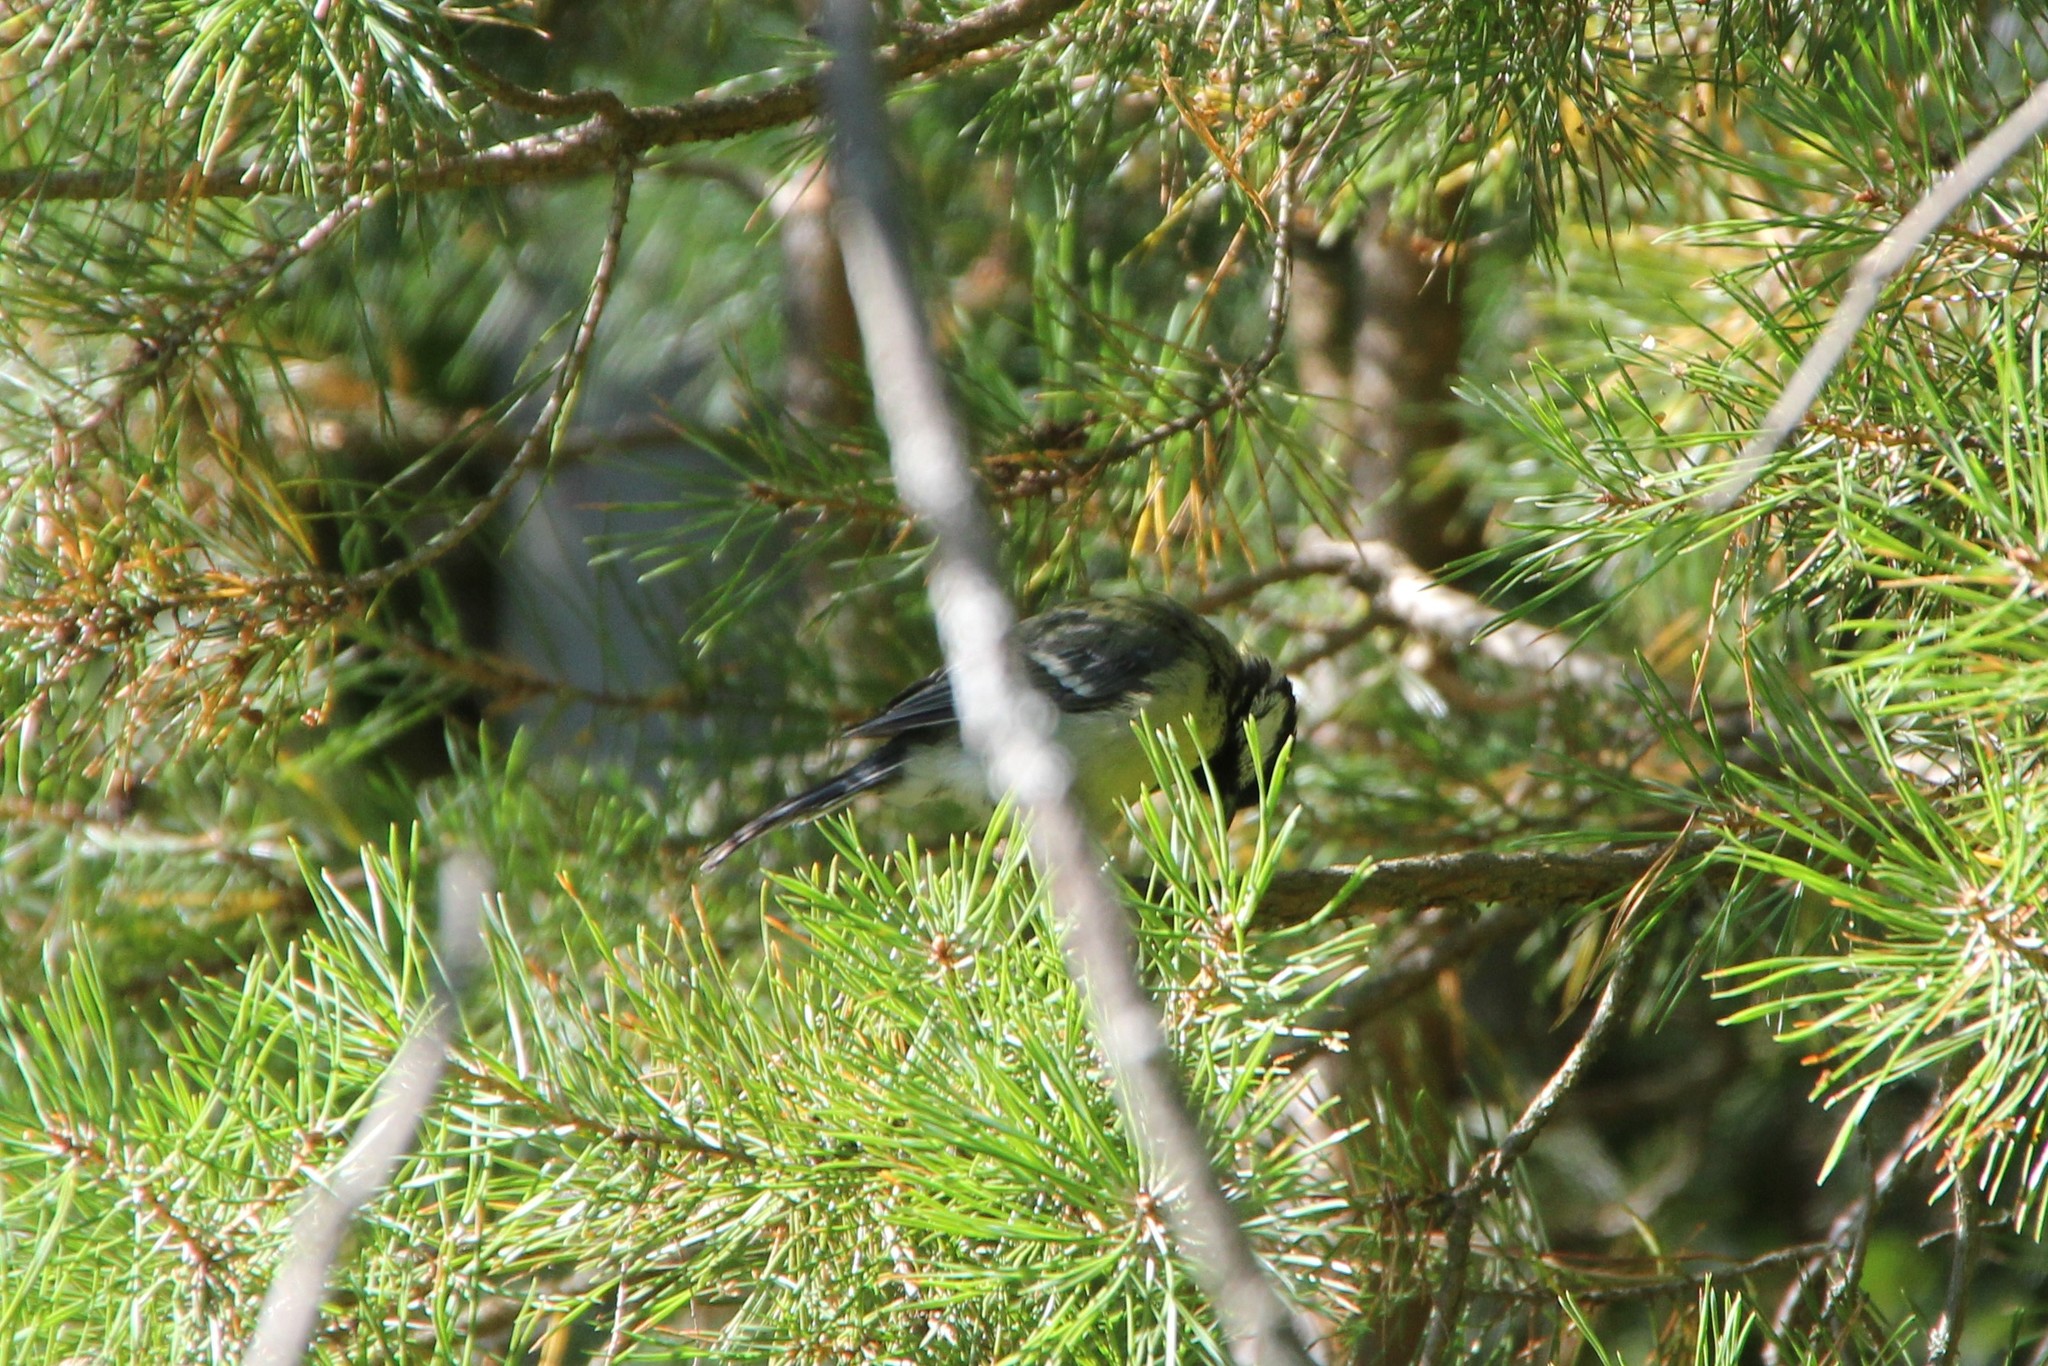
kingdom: Animalia
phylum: Chordata
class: Aves
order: Passeriformes
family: Paridae
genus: Parus
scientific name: Parus major
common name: Great tit
